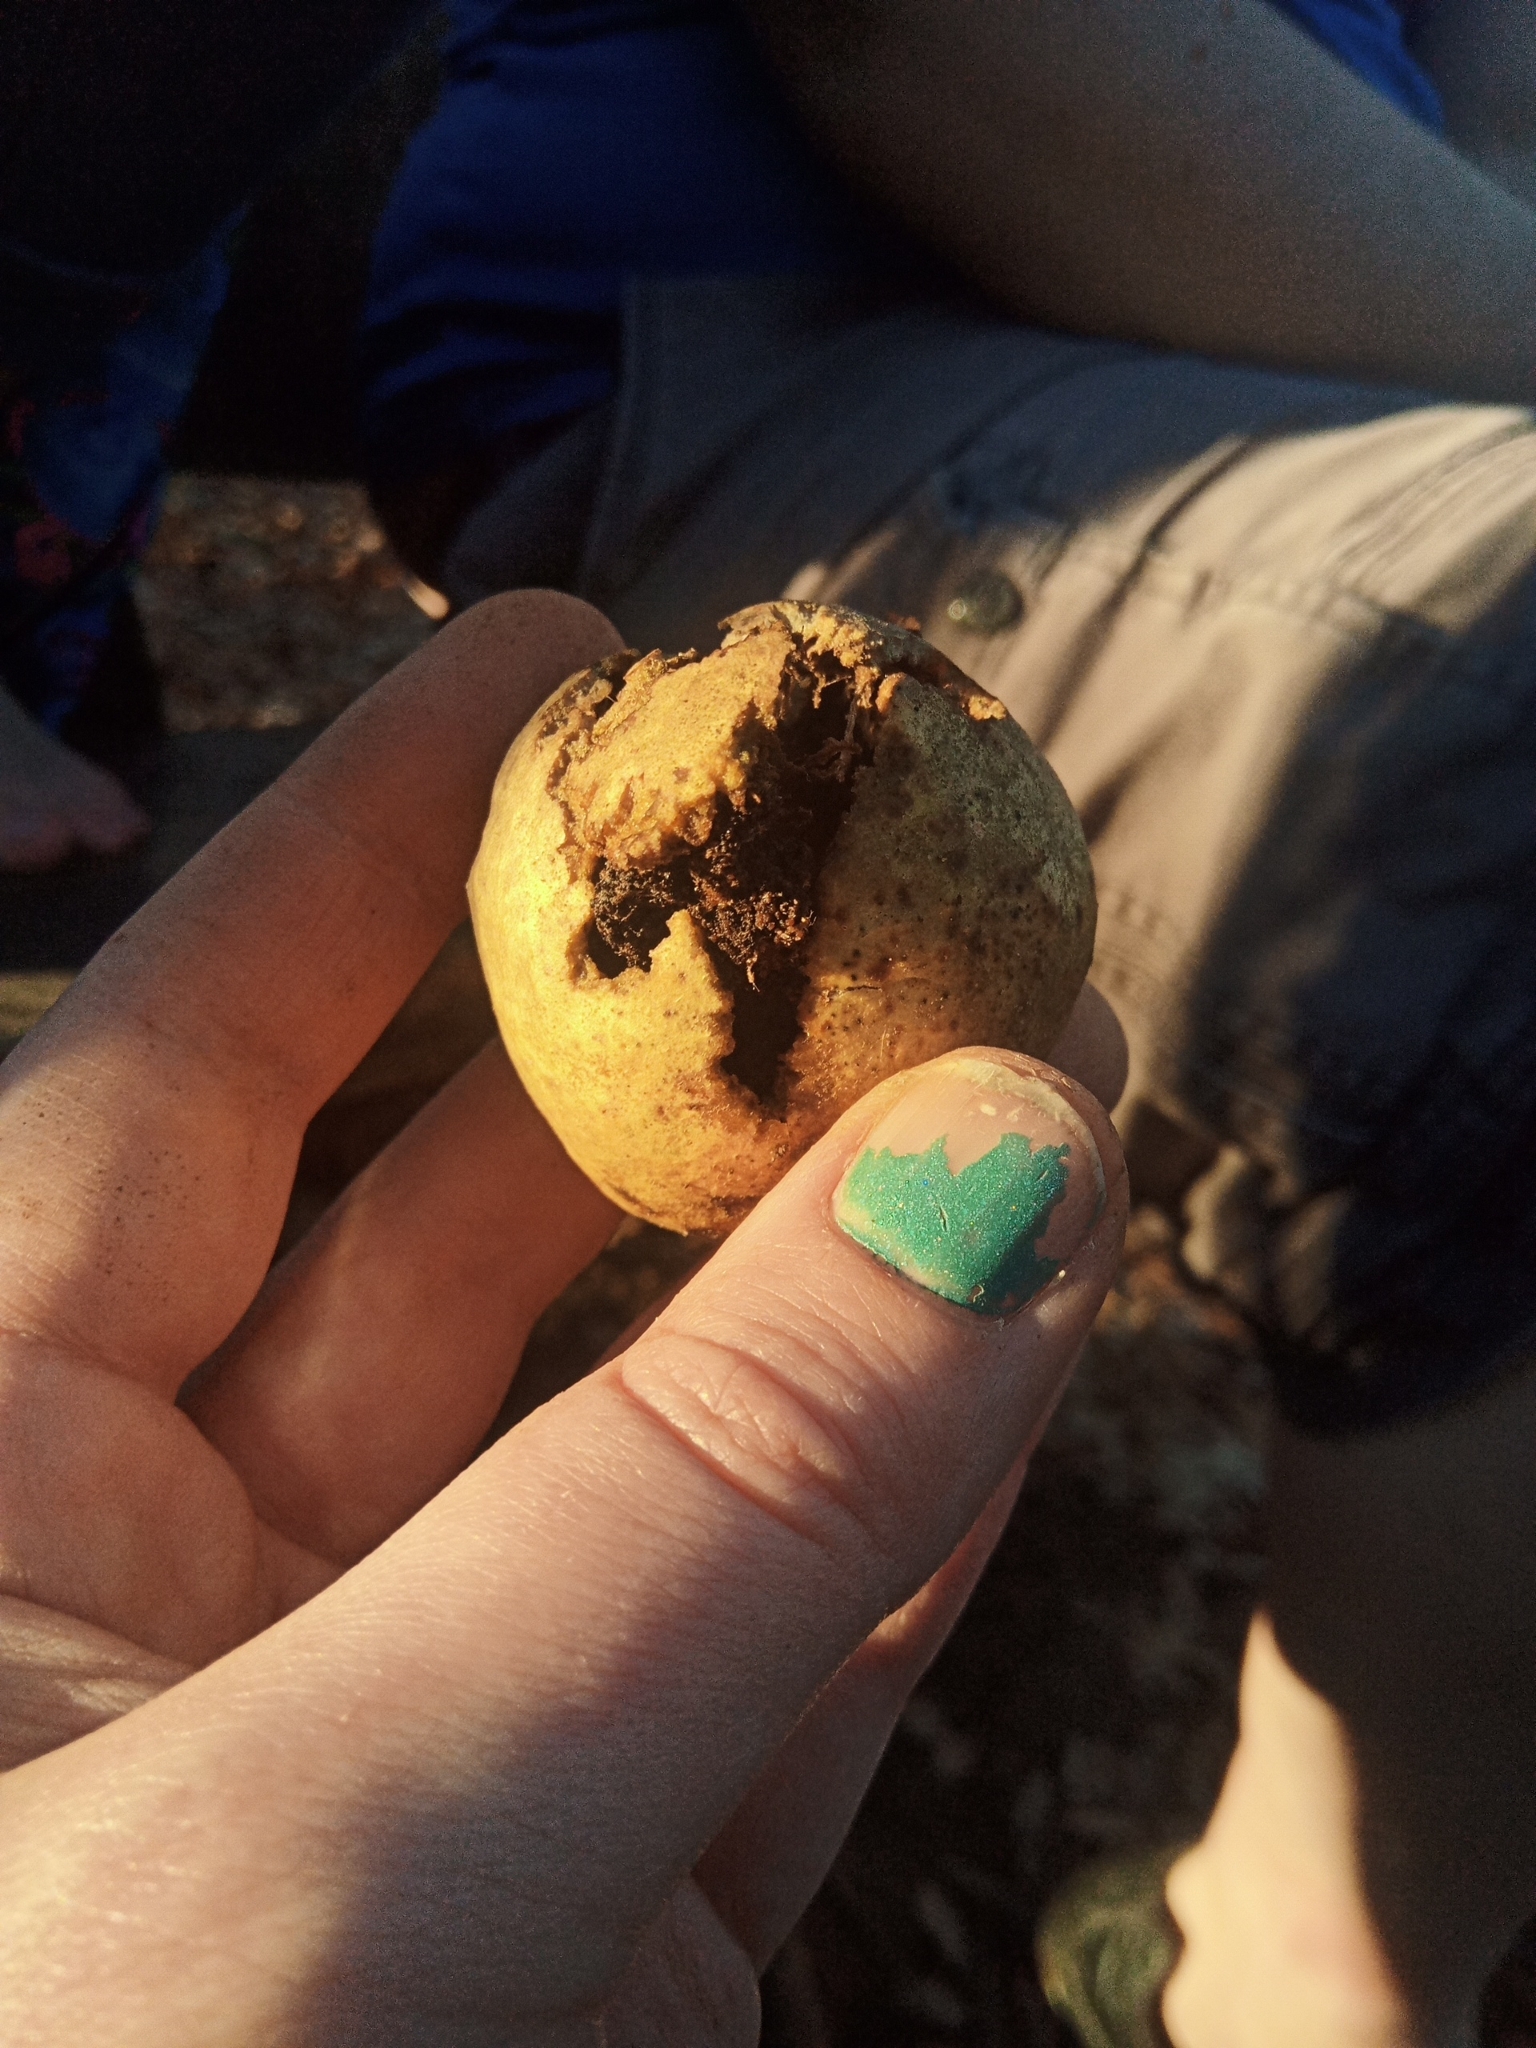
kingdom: Animalia
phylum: Arthropoda
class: Insecta
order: Hymenoptera
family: Cynipidae
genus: Amphibolips
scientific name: Amphibolips
